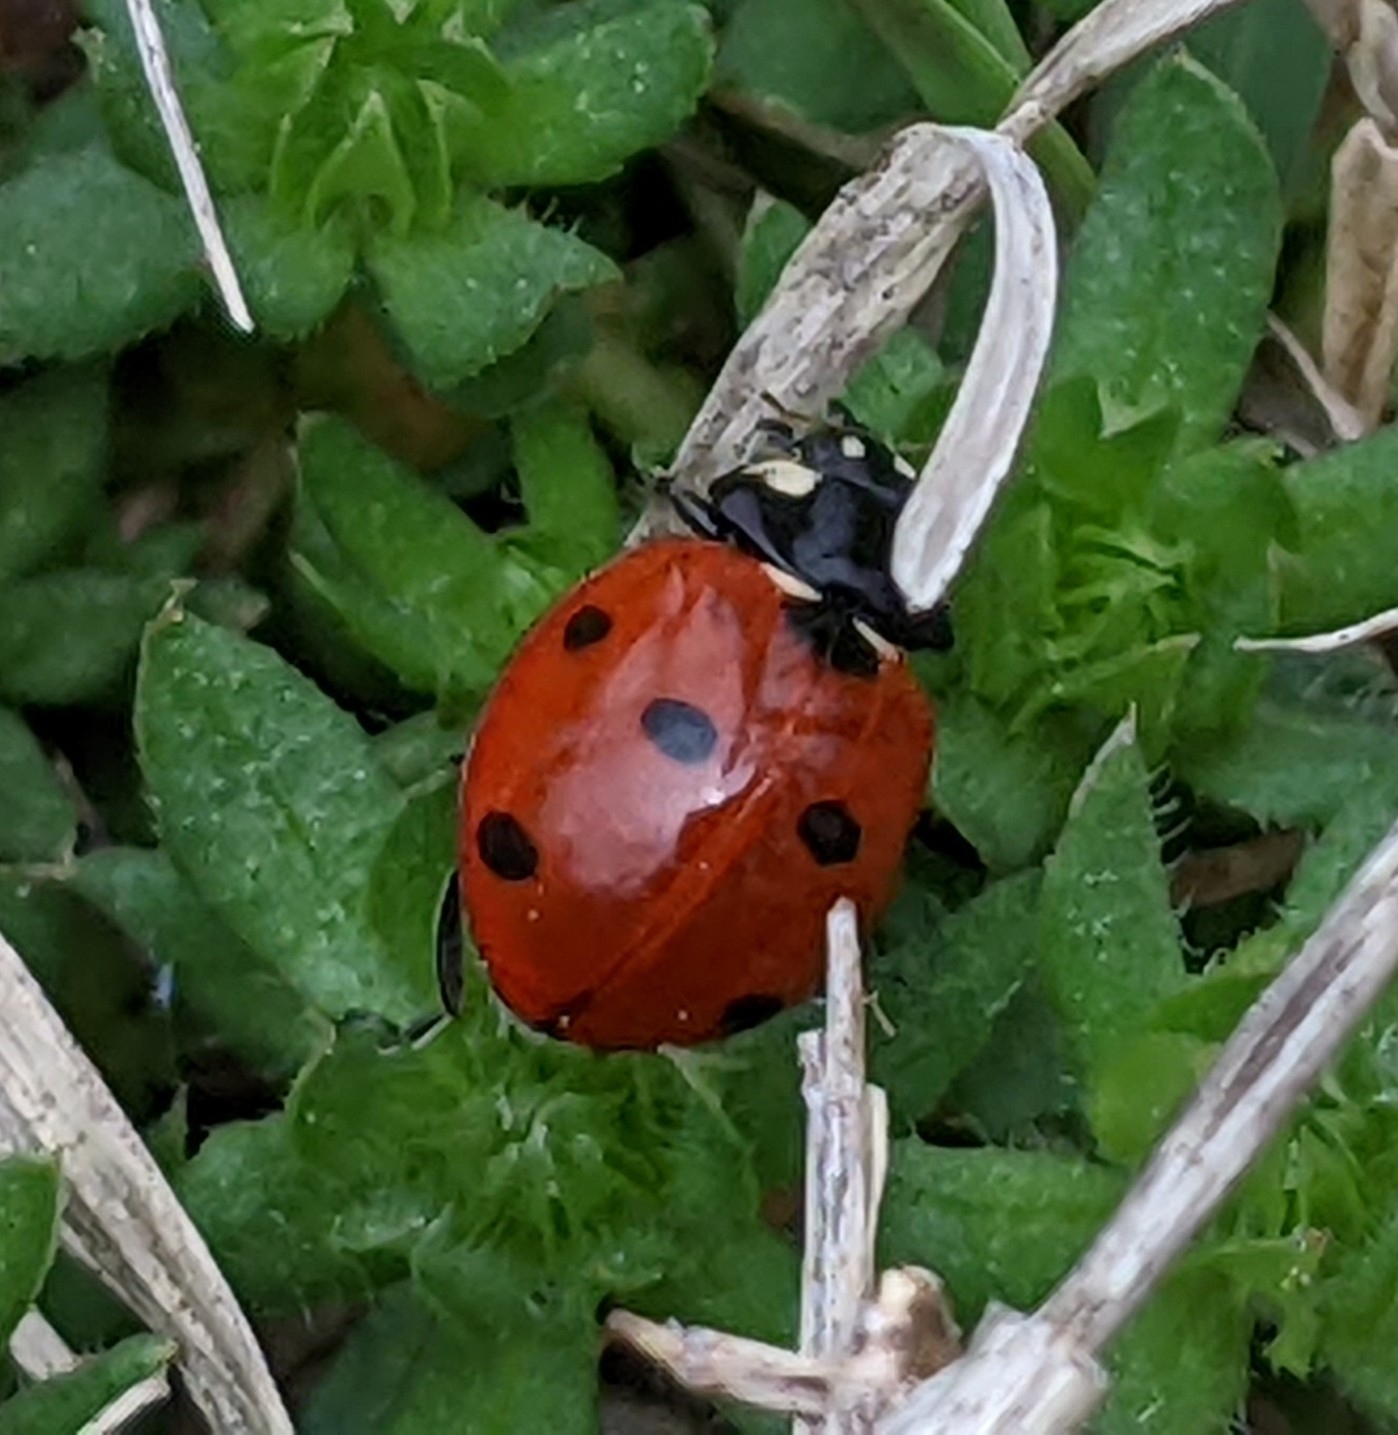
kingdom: Animalia
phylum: Arthropoda
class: Insecta
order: Coleoptera
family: Coccinellidae
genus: Coccinella
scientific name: Coccinella septempunctata
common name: Sevenspotted lady beetle
